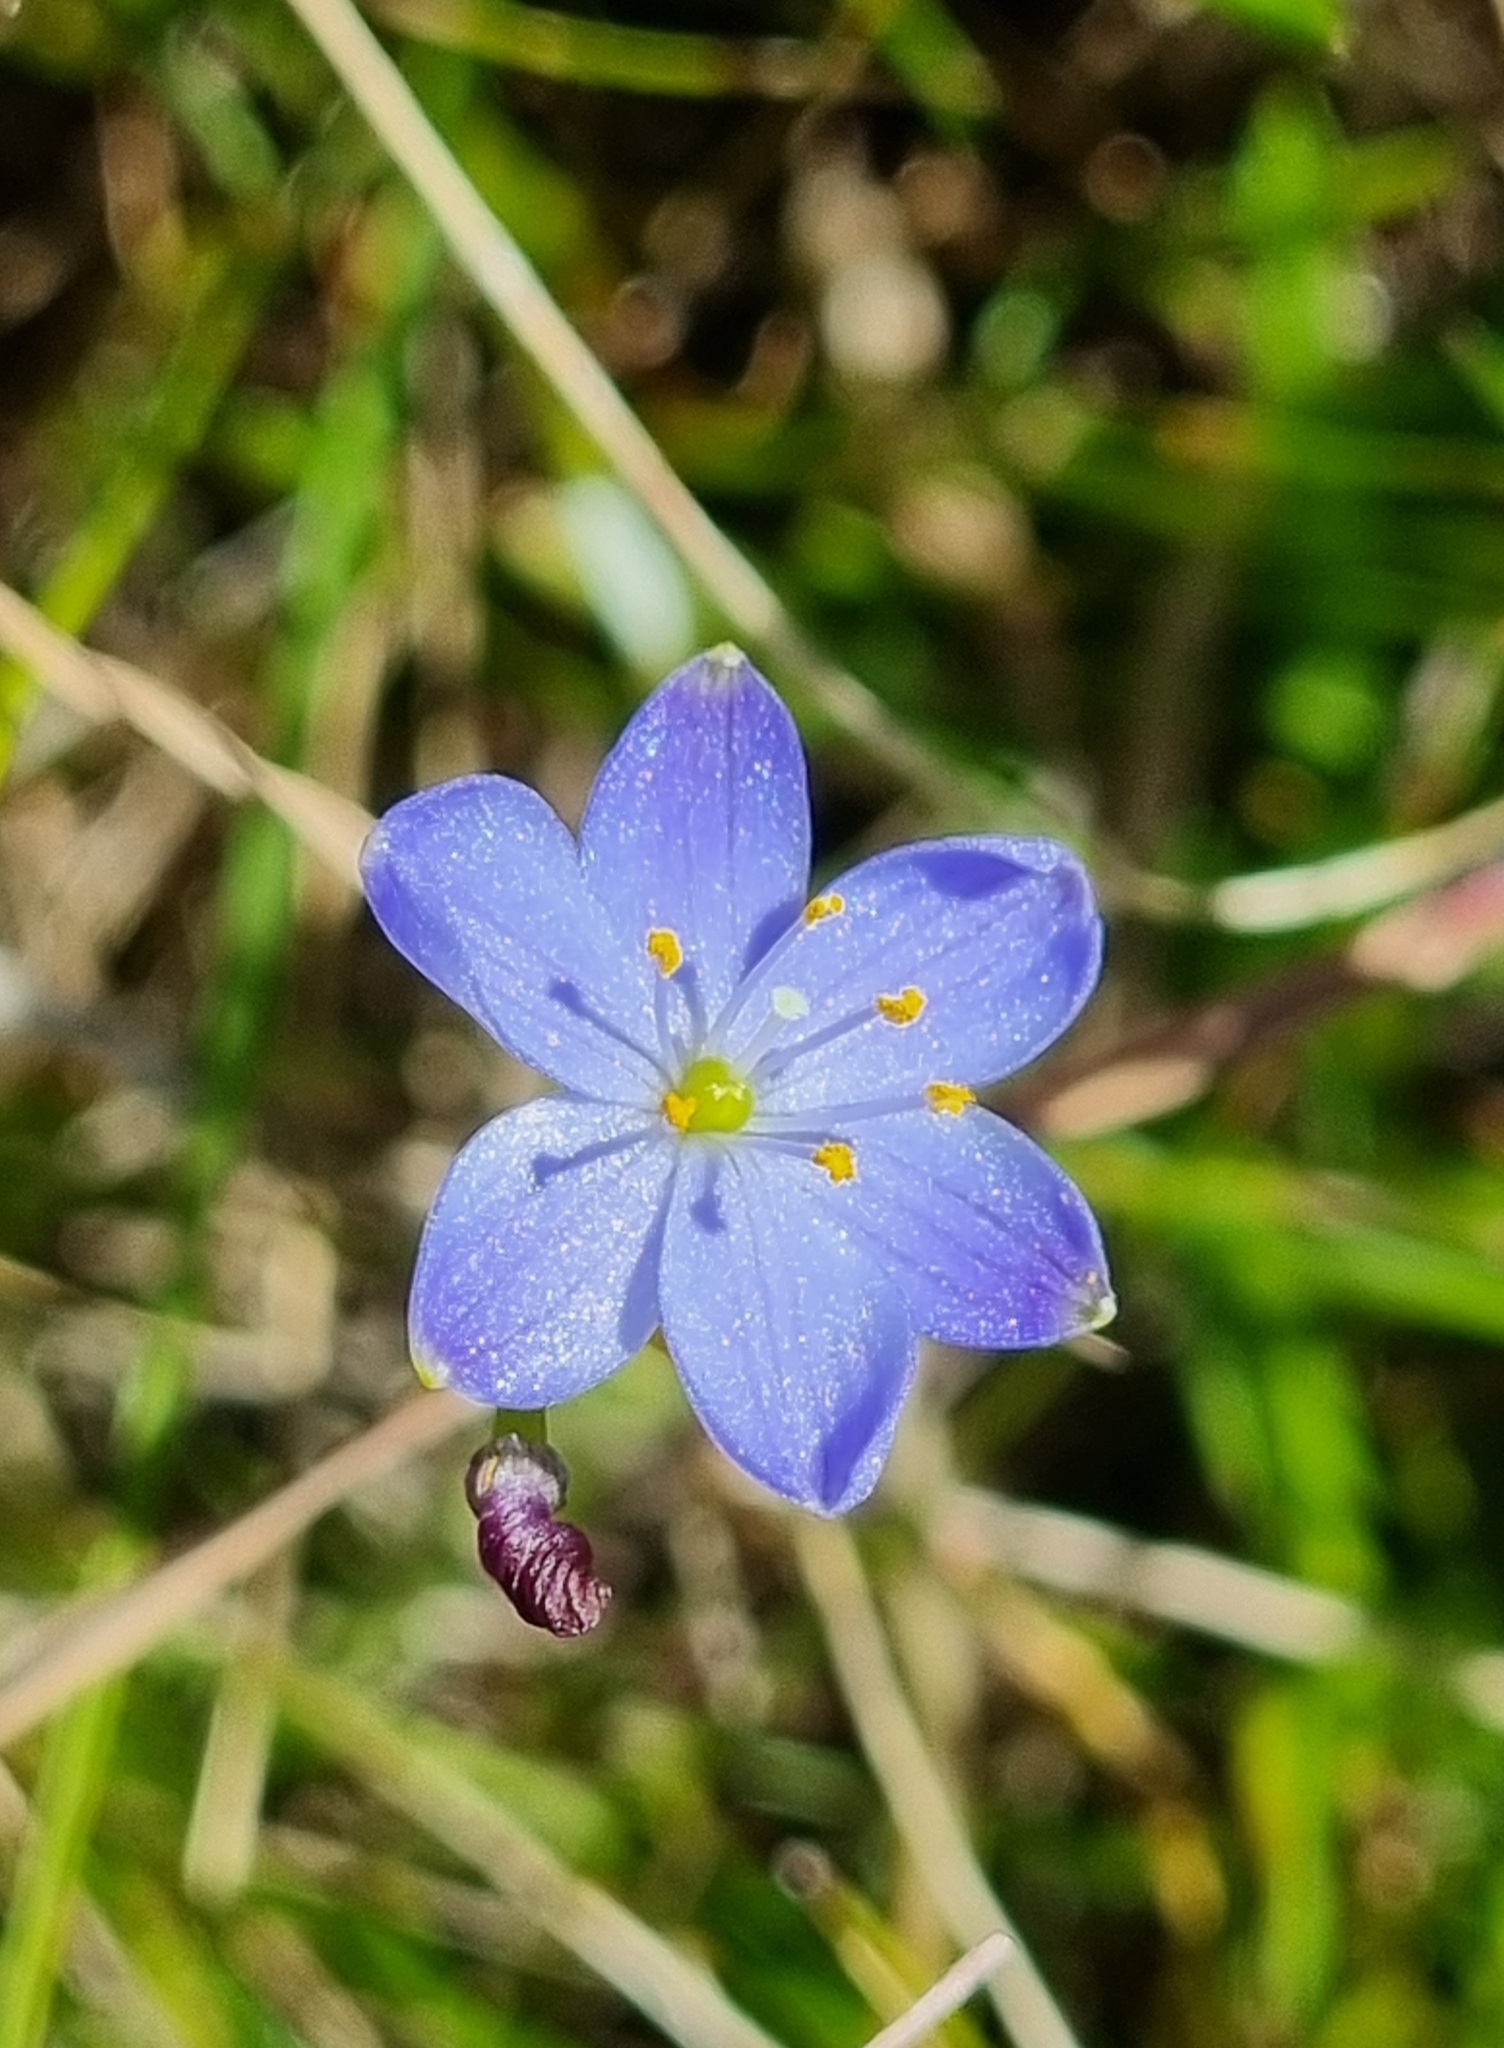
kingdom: Plantae
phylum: Tracheophyta
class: Liliopsida
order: Asparagales
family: Asphodelaceae
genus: Chamaescilla
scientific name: Chamaescilla corymbosa
